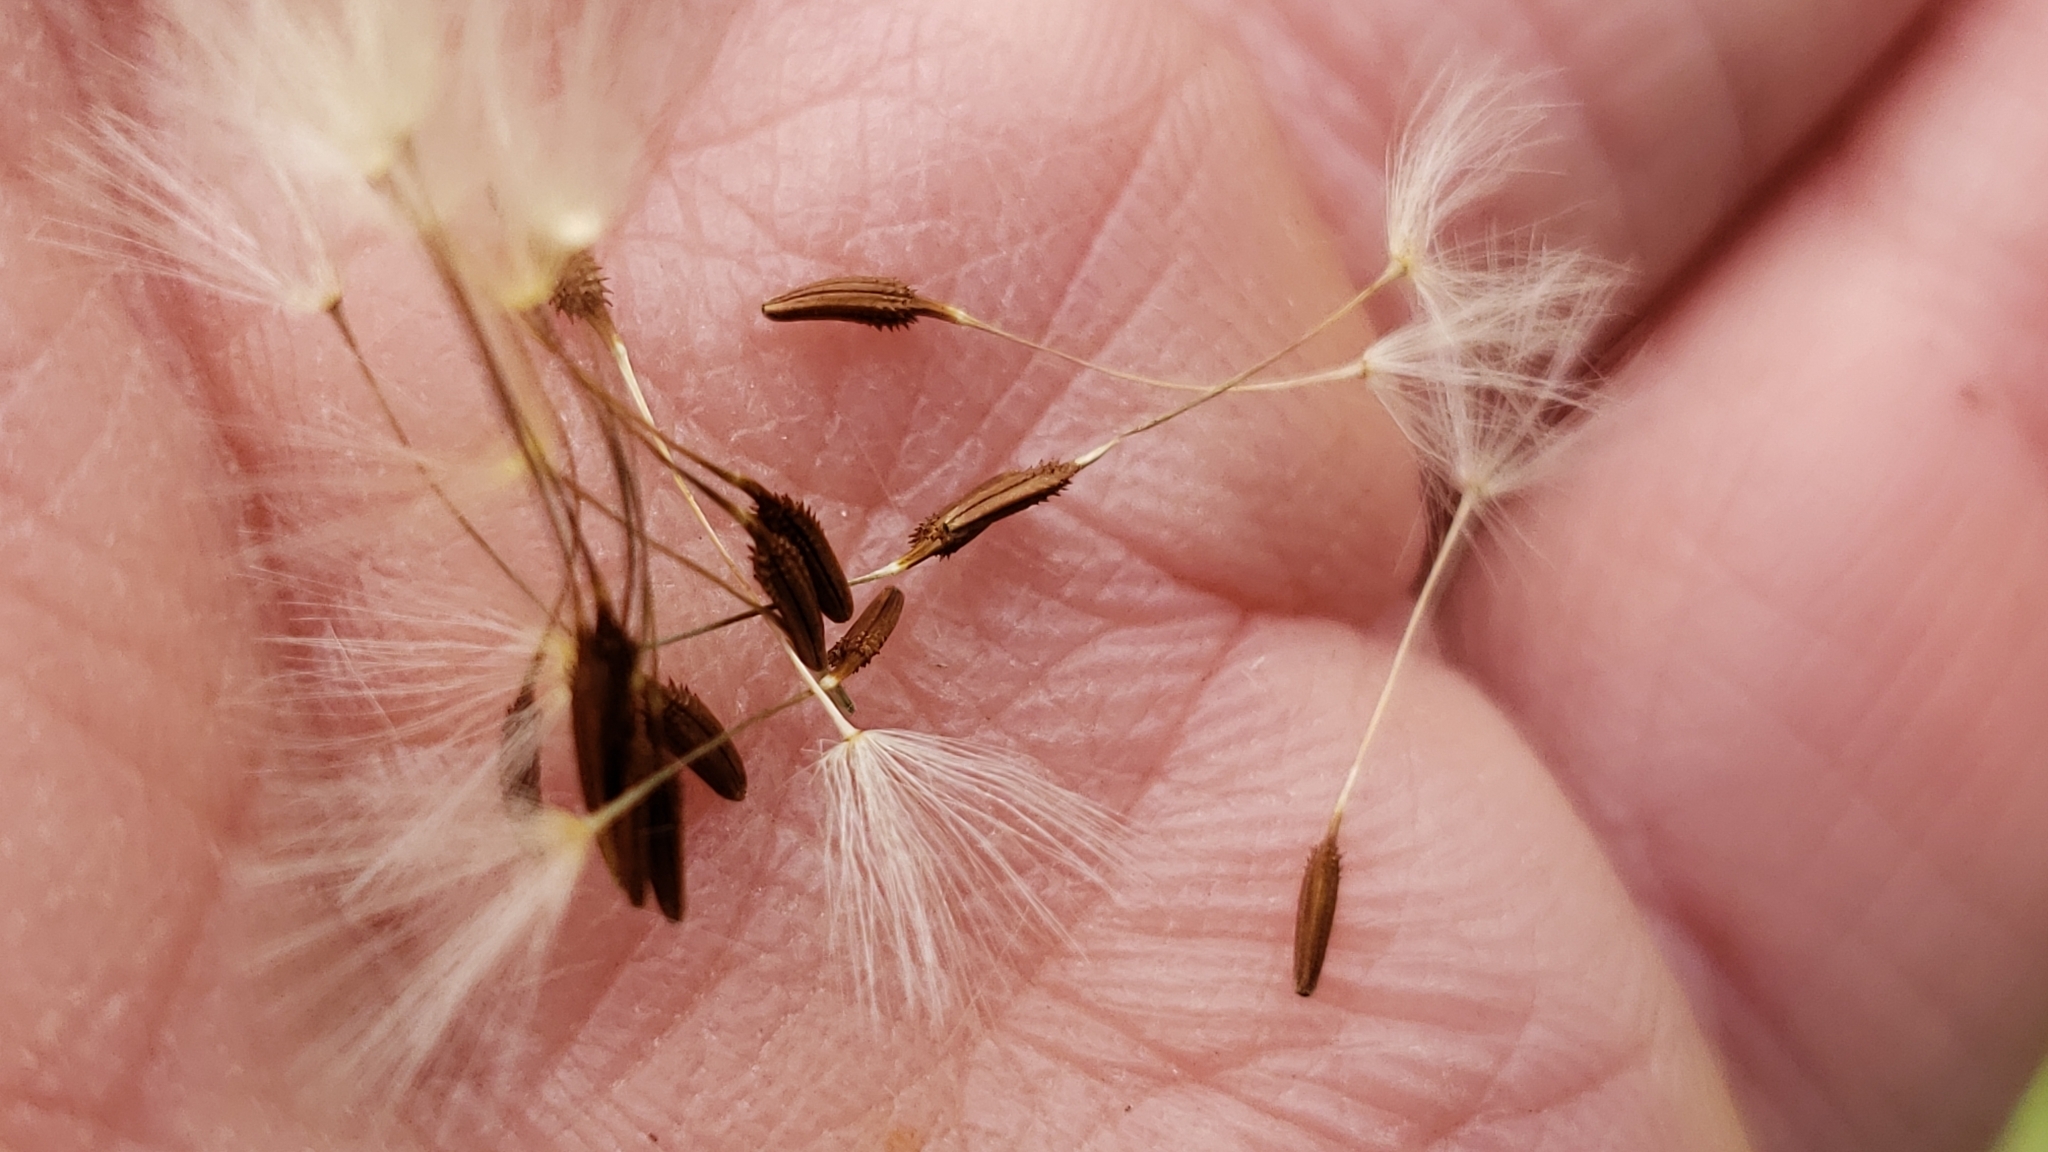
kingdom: Plantae
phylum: Tracheophyta
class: Magnoliopsida
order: Asterales
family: Asteraceae
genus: Taraxacum
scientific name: Taraxacum officinale
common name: Common dandelion
